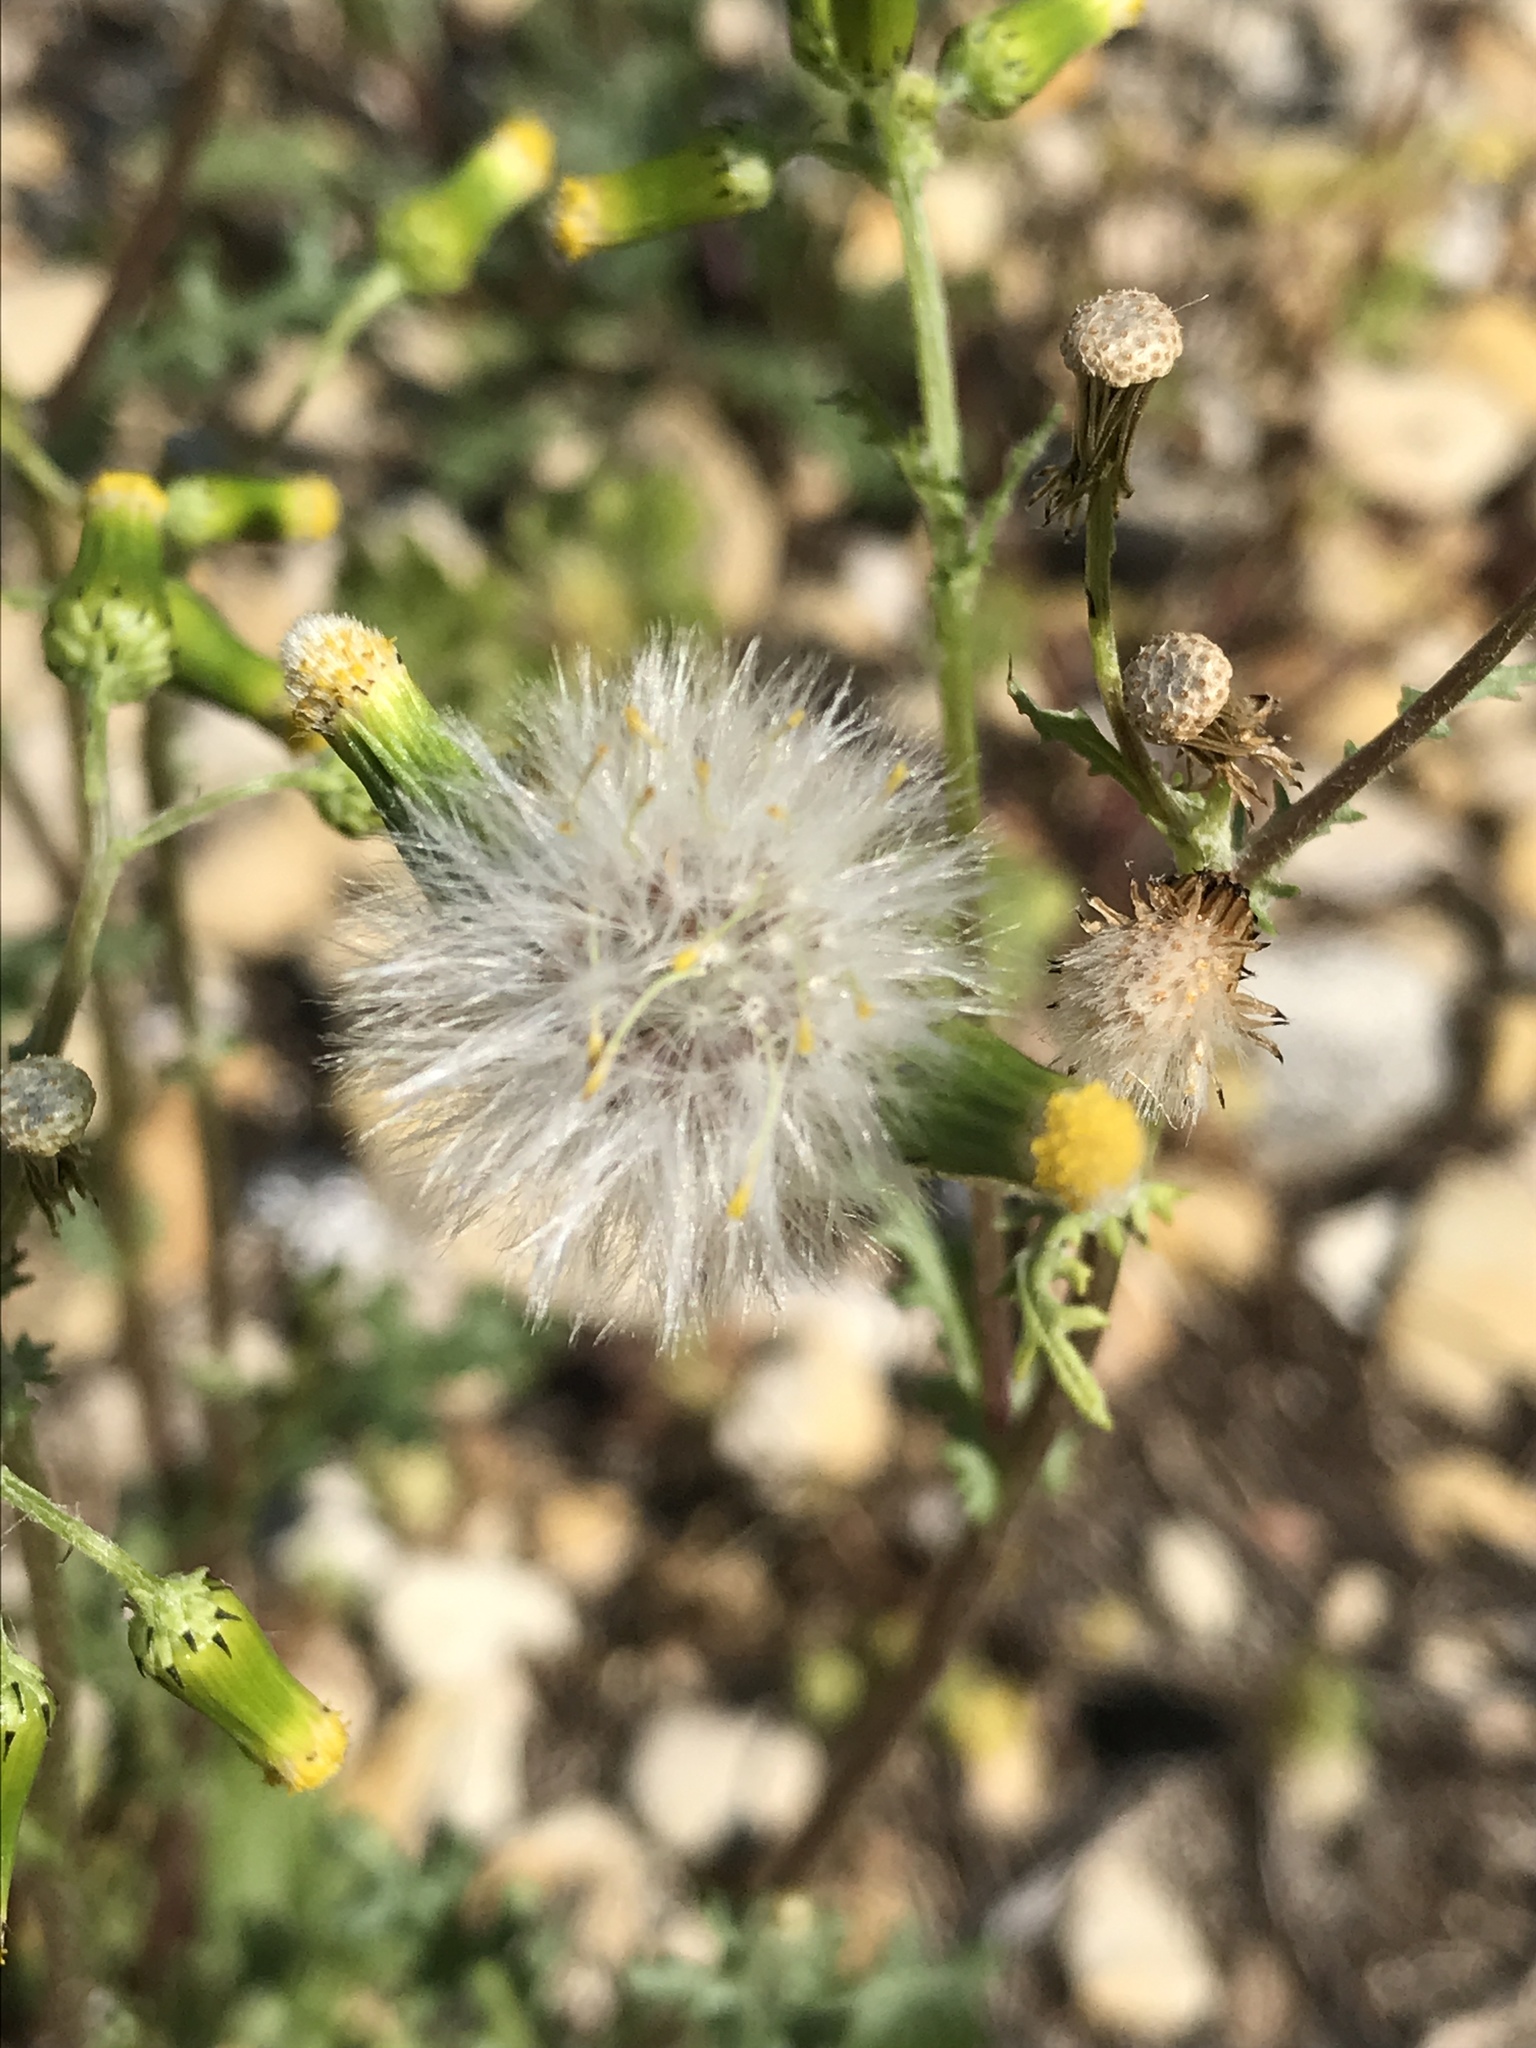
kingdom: Plantae
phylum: Tracheophyta
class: Magnoliopsida
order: Asterales
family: Asteraceae
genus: Senecio
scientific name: Senecio vulgaris
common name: Old-man-in-the-spring
